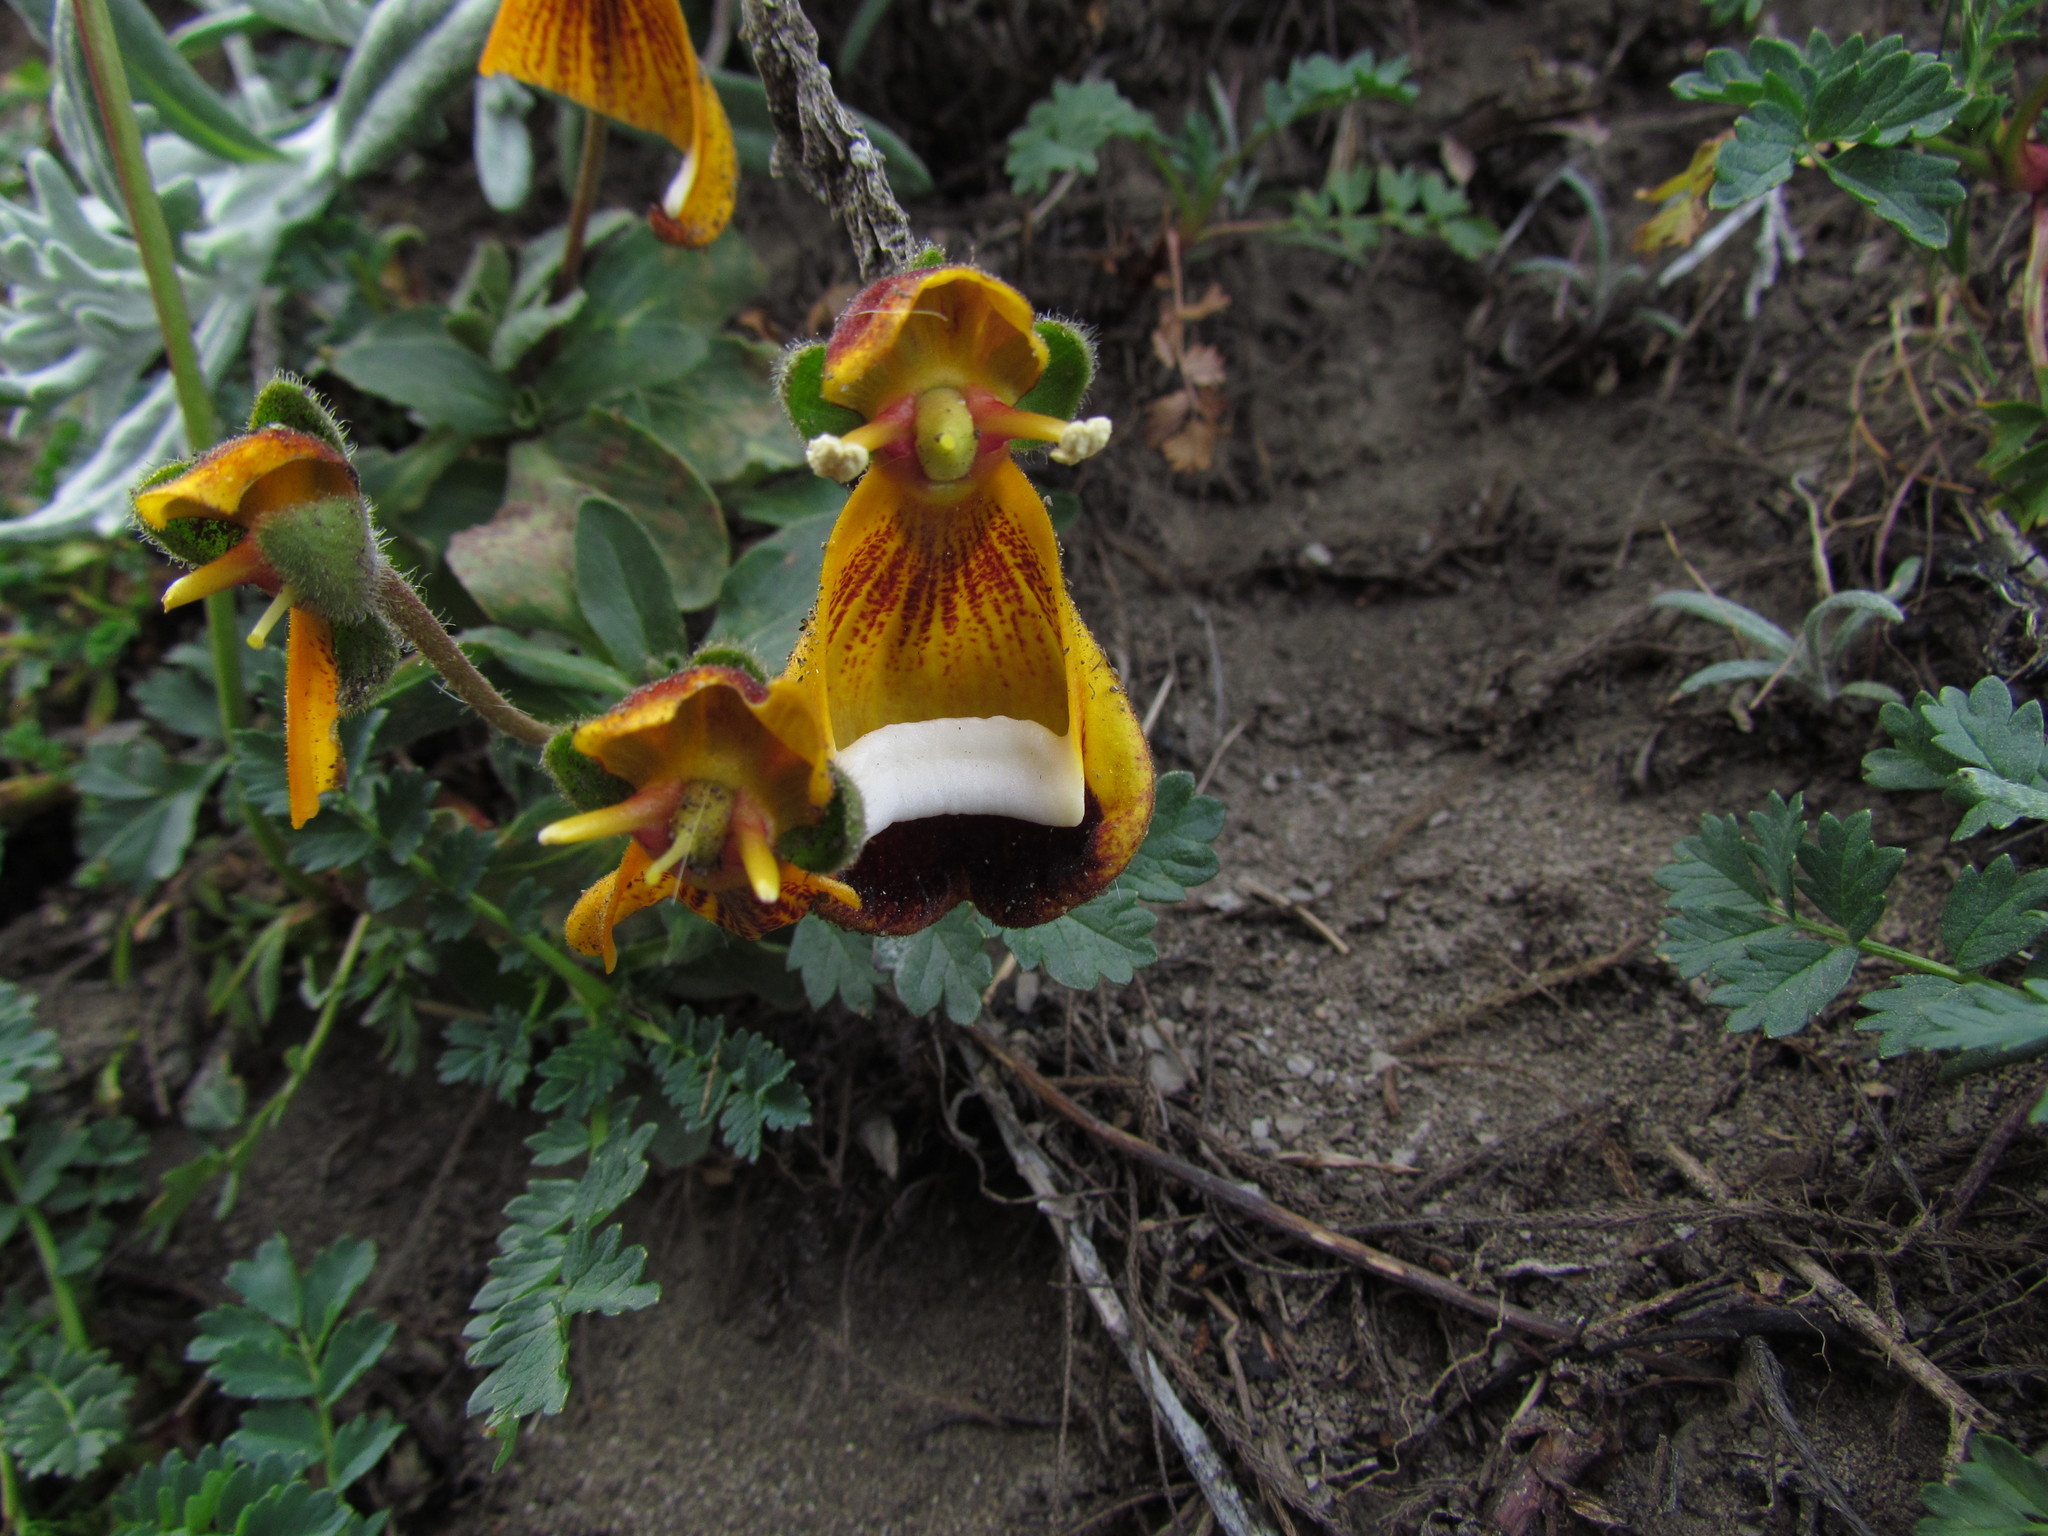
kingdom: Plantae
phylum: Tracheophyta
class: Magnoliopsida
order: Lamiales
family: Calceolariaceae
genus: Calceolaria
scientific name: Calceolaria uniflora
